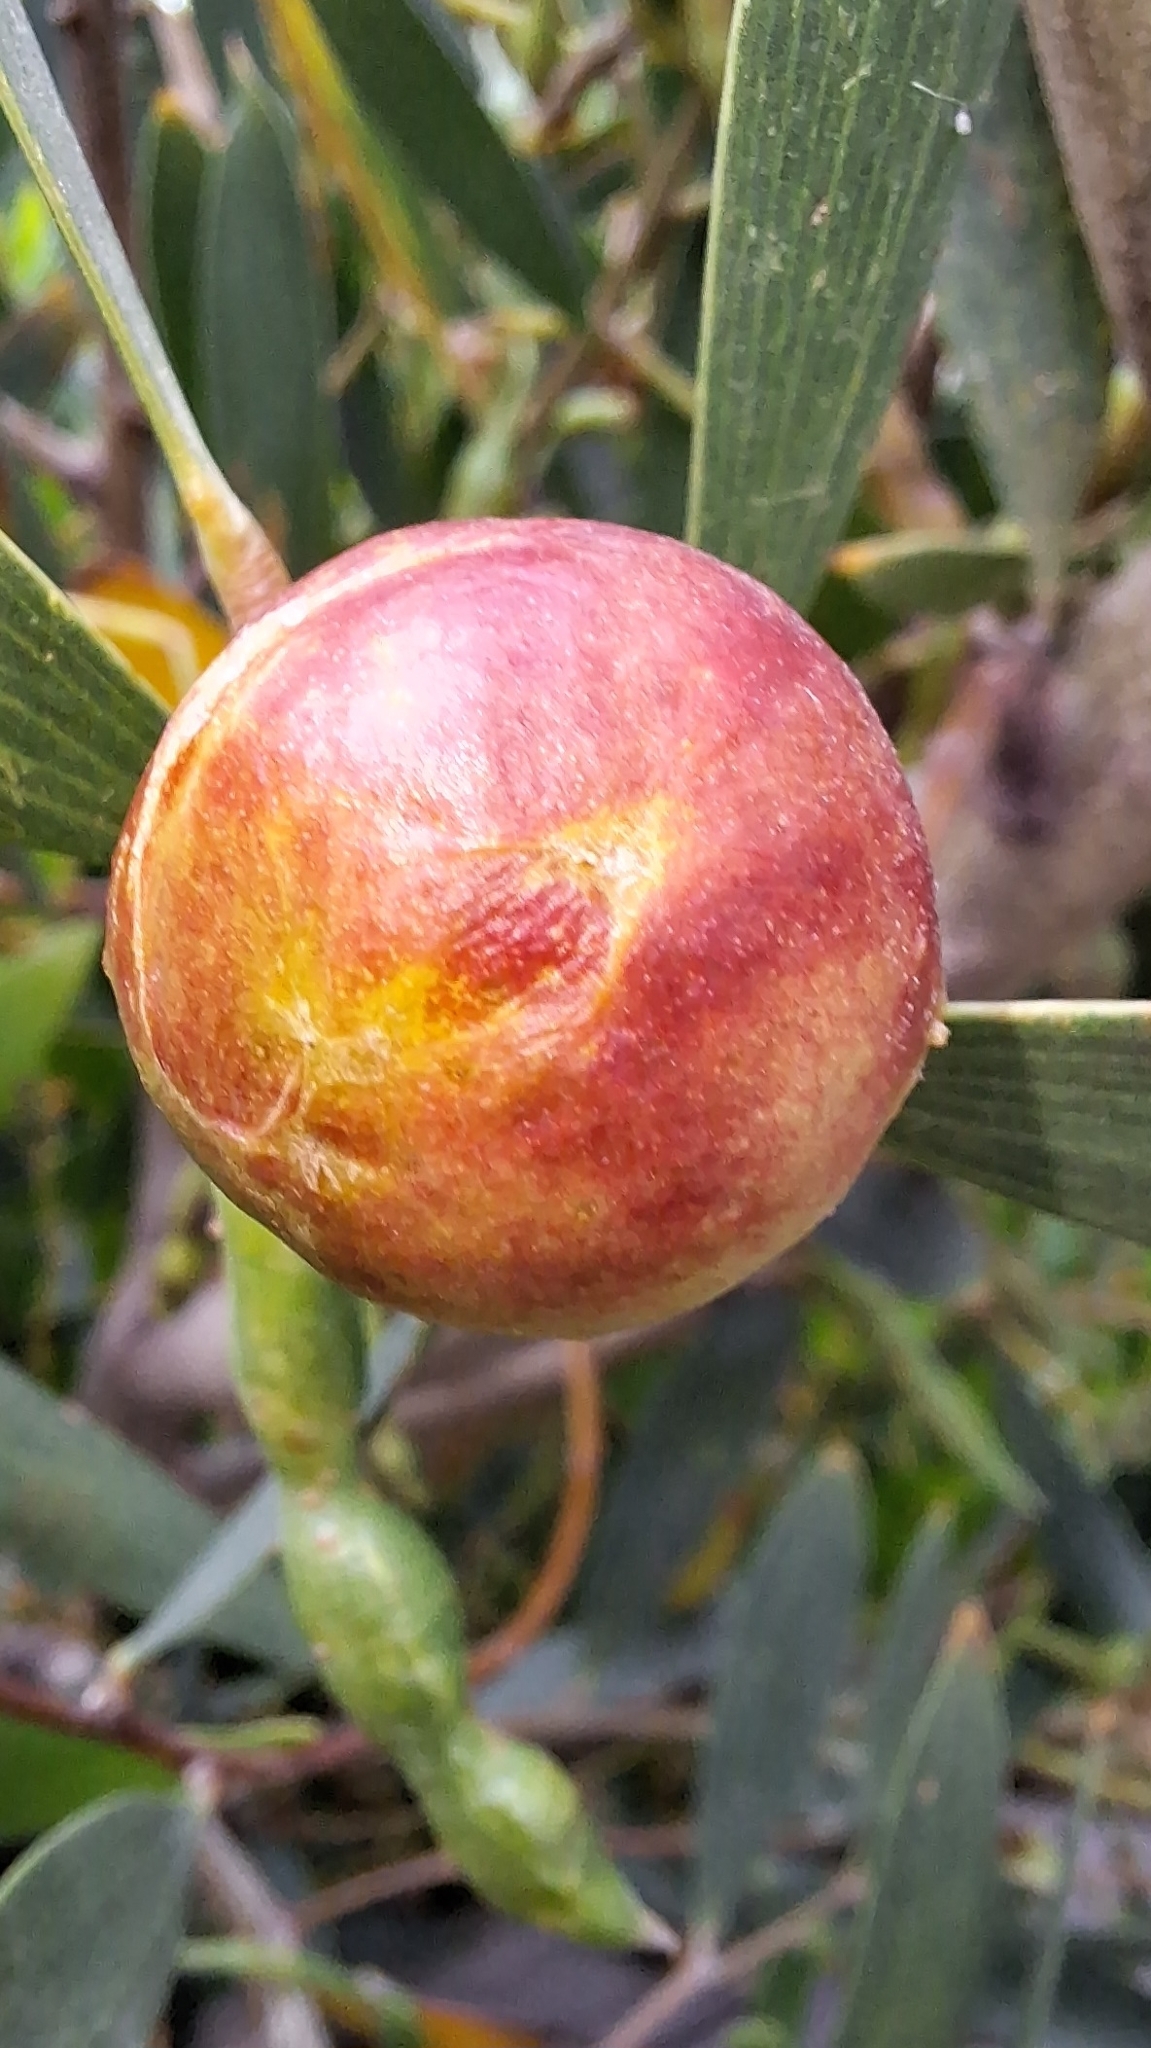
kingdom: Animalia
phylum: Arthropoda
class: Insecta
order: Hymenoptera
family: Pteromalidae
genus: Trichilogaster
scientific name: Trichilogaster acaciaelongifoliae
